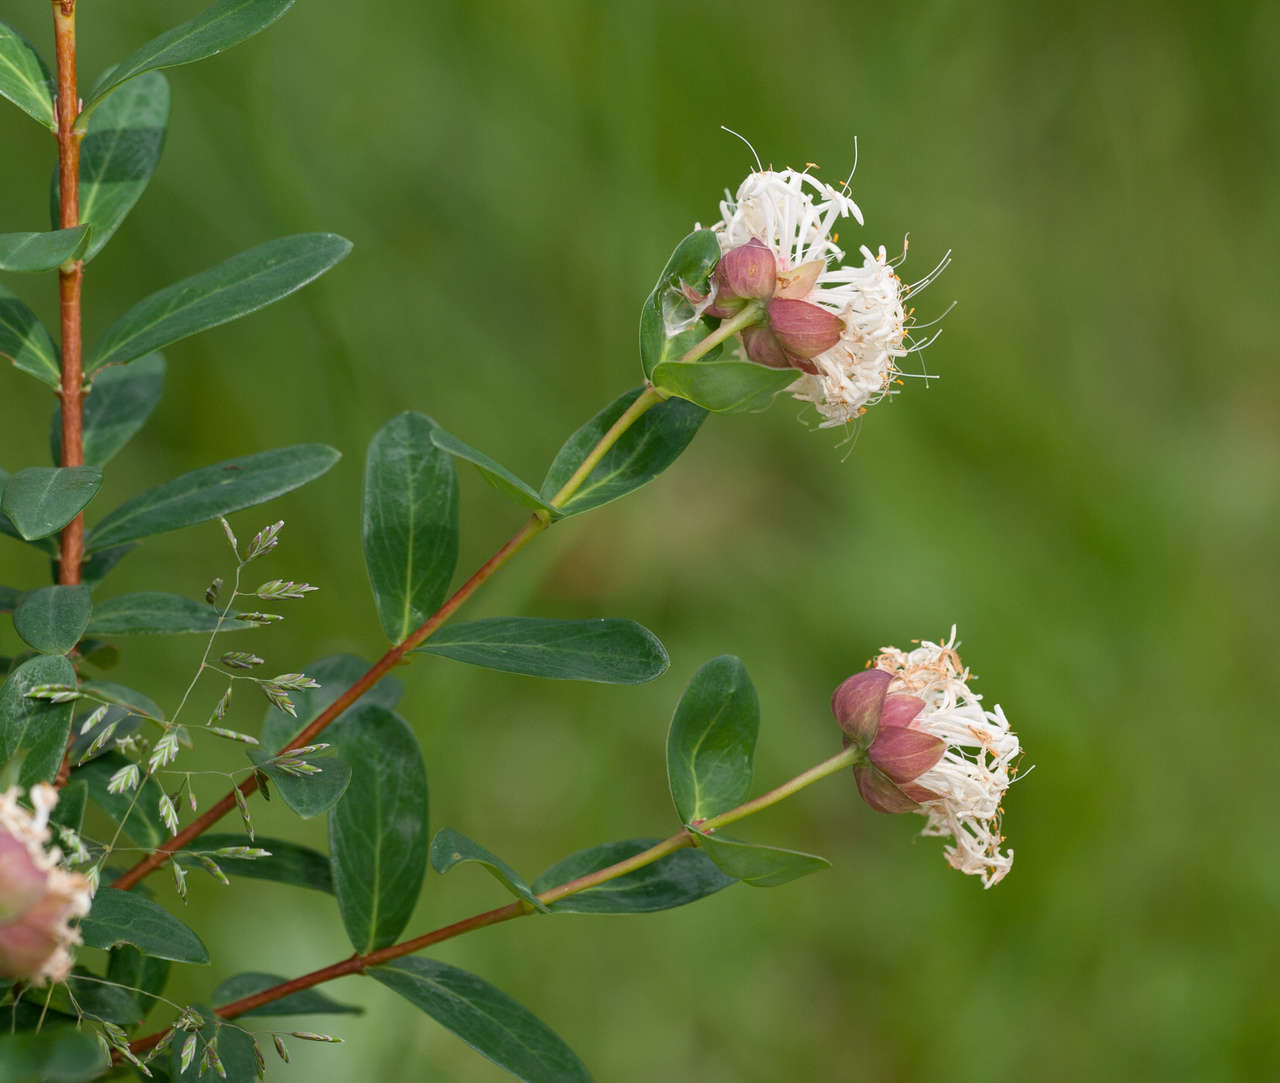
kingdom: Plantae
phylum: Tracheophyta
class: Magnoliopsida
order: Malvales
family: Thymelaeaceae
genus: Pimelea
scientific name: Pimelea ligustrina
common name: Tall riceflower
